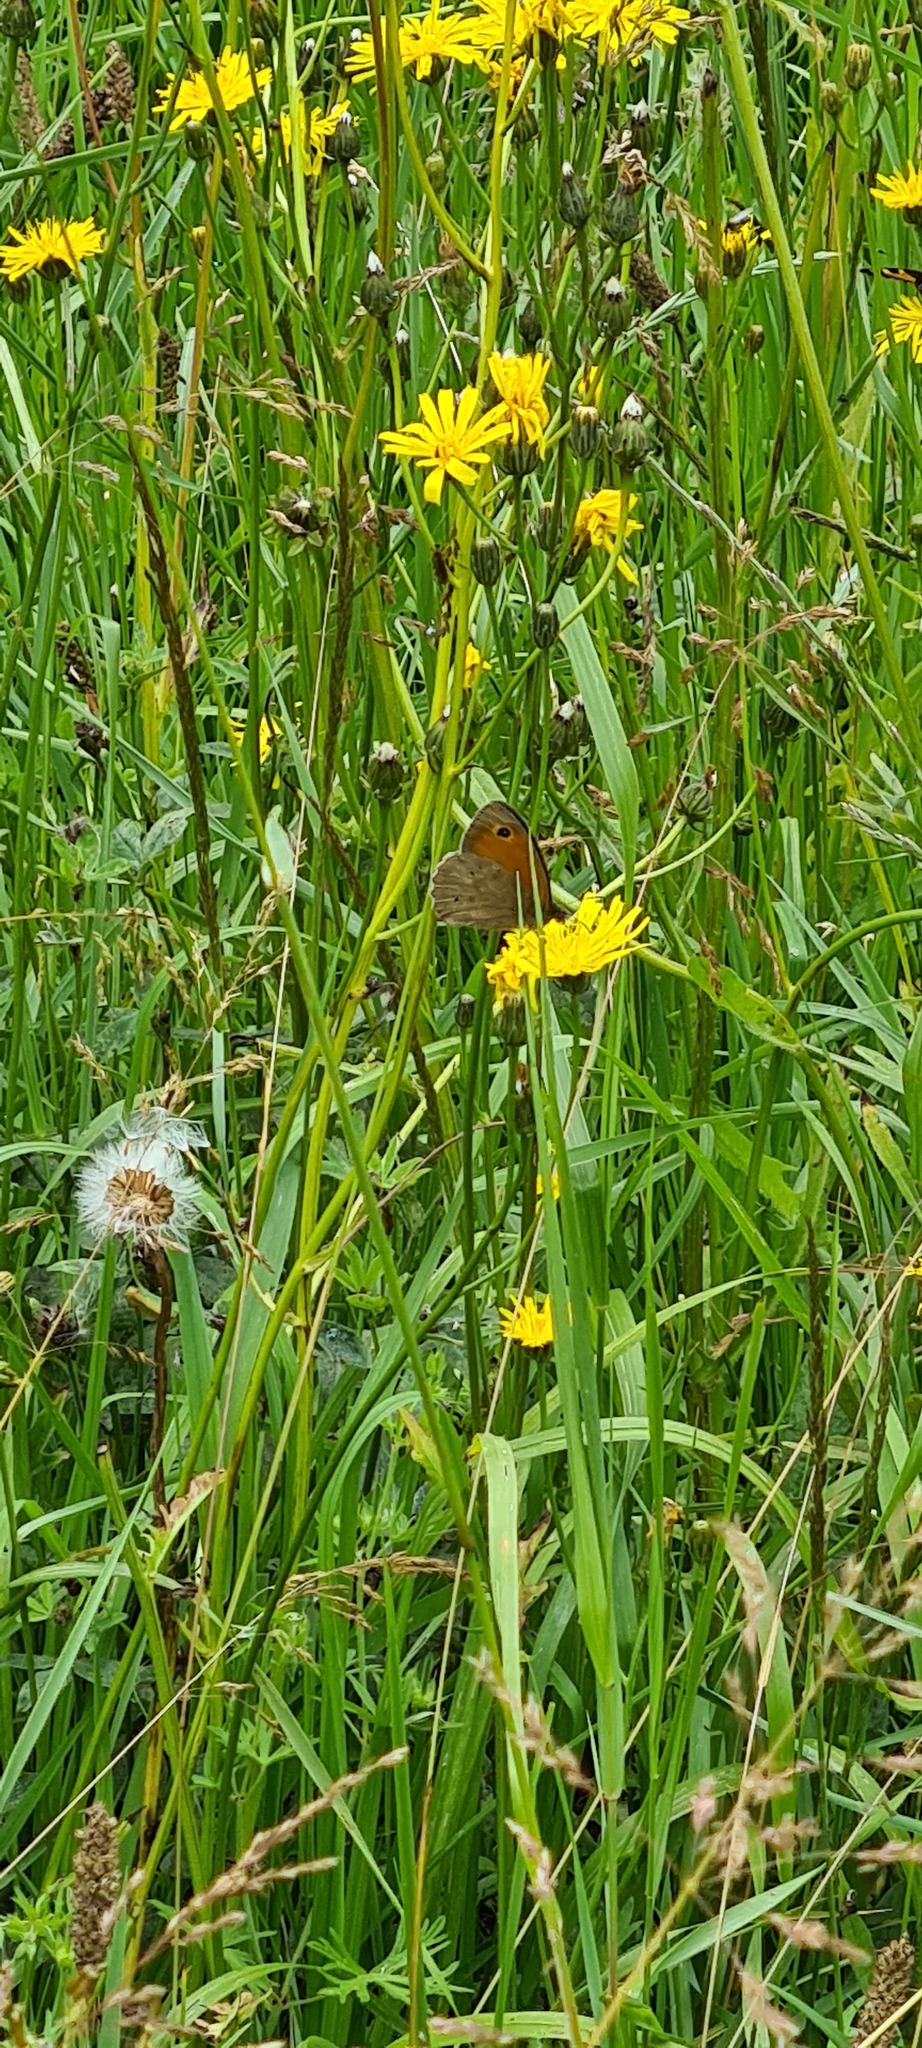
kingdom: Animalia
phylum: Arthropoda
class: Insecta
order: Lepidoptera
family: Nymphalidae
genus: Maniola
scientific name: Maniola jurtina
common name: Meadow brown
